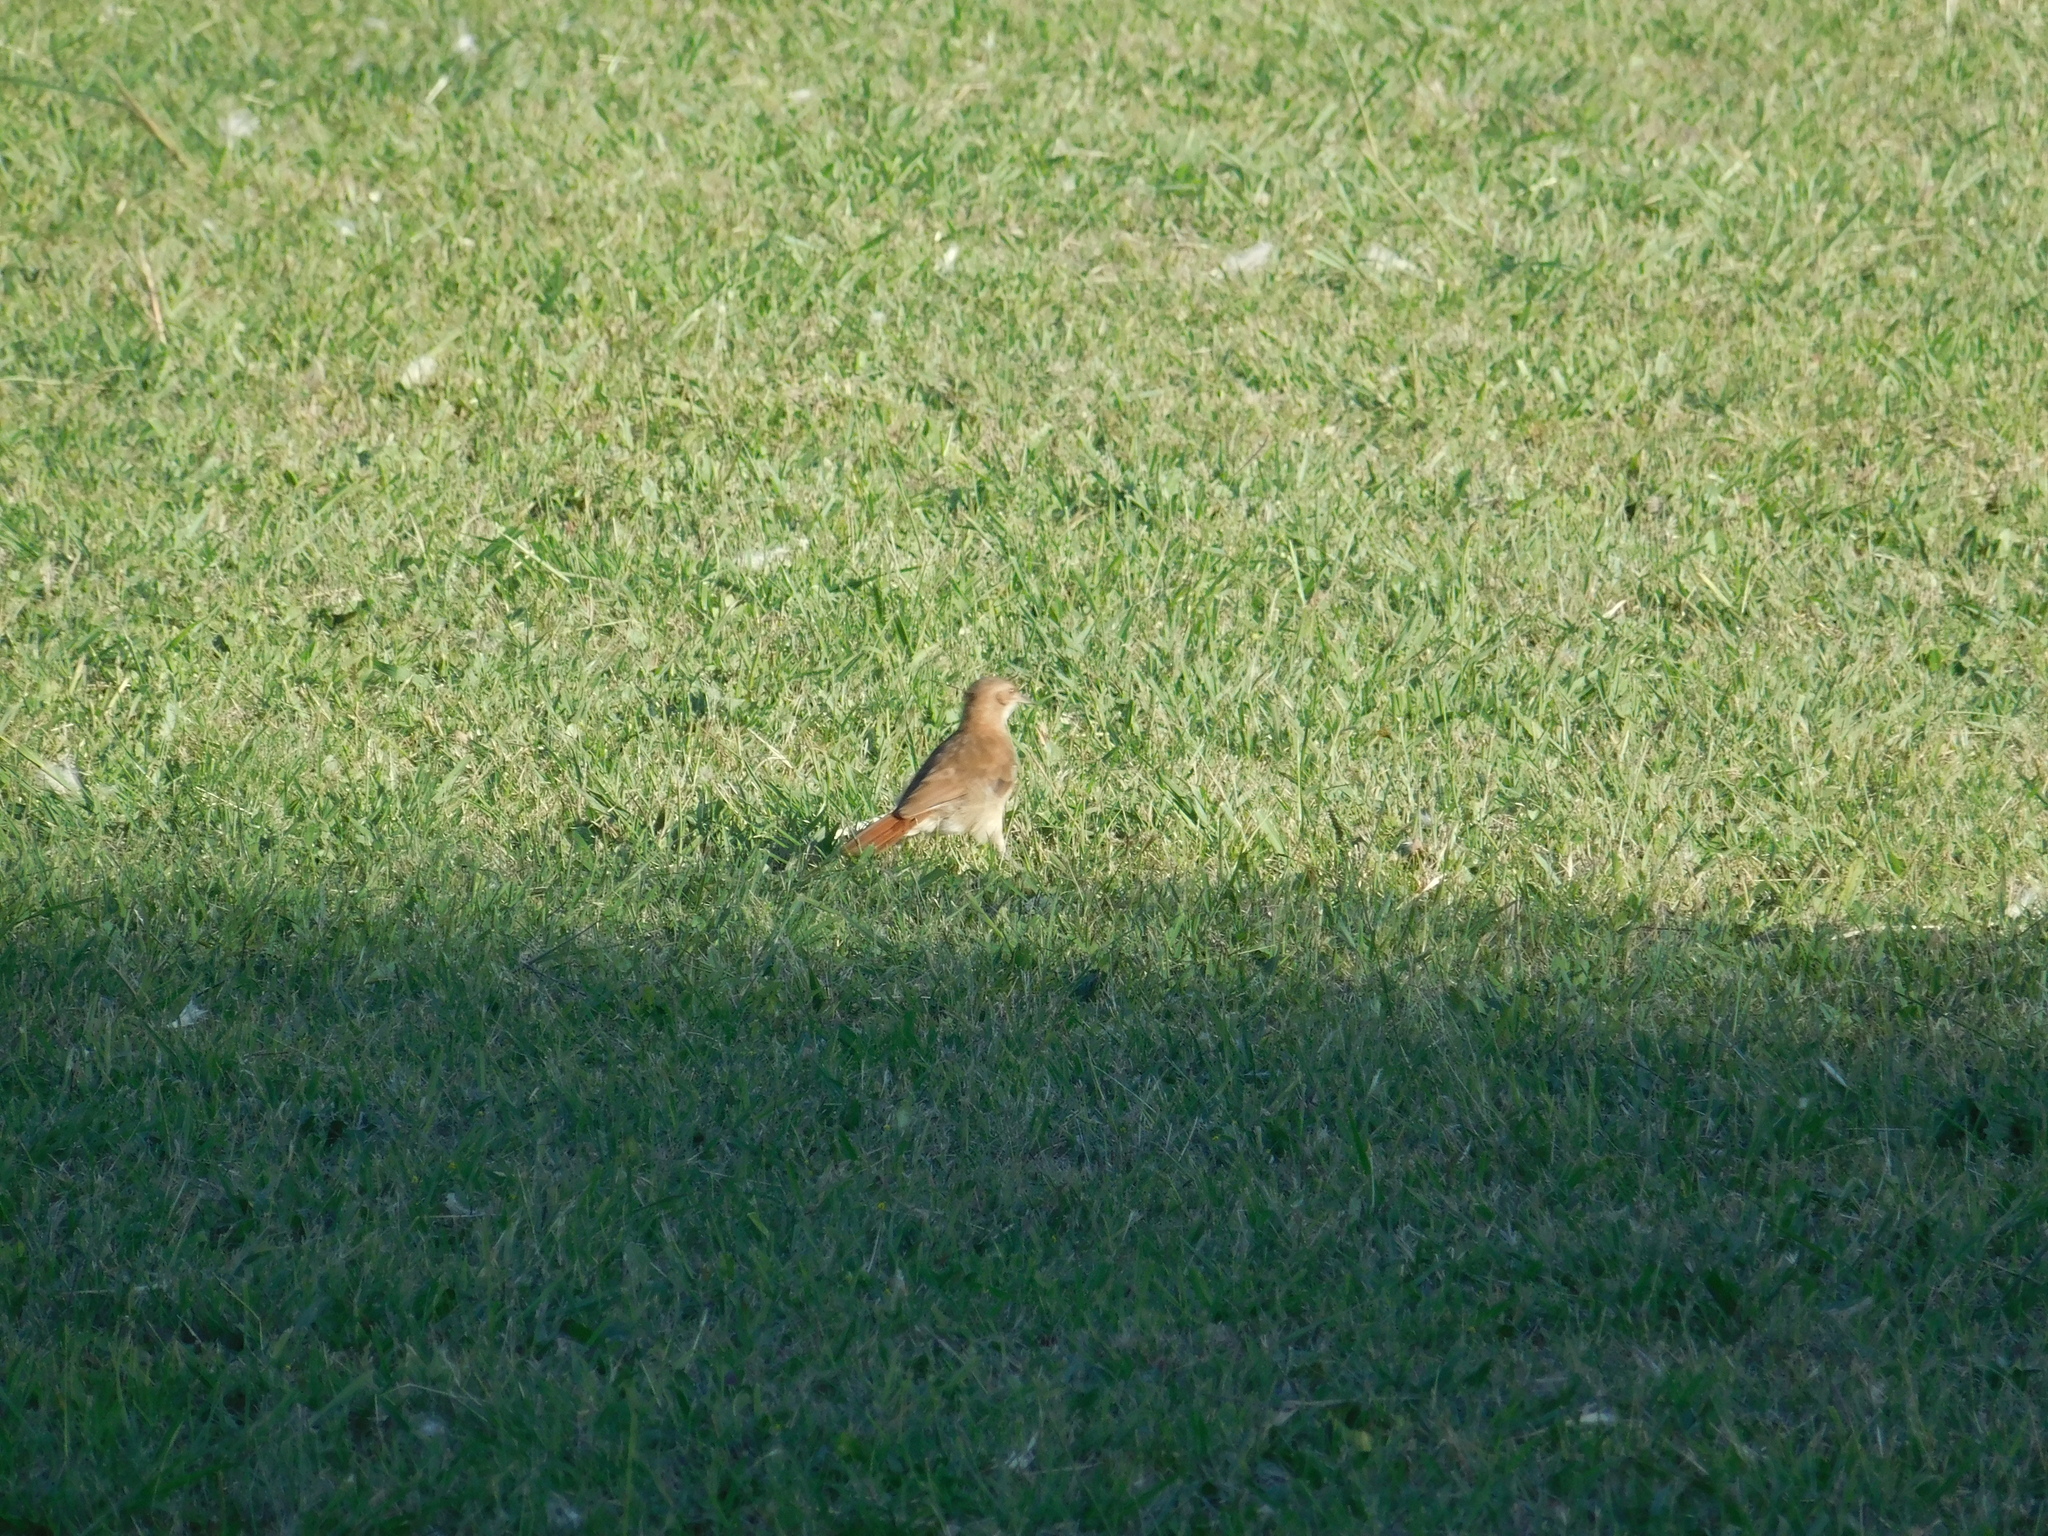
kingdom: Animalia
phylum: Chordata
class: Aves
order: Passeriformes
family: Furnariidae
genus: Furnarius
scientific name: Furnarius rufus
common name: Rufous hornero
